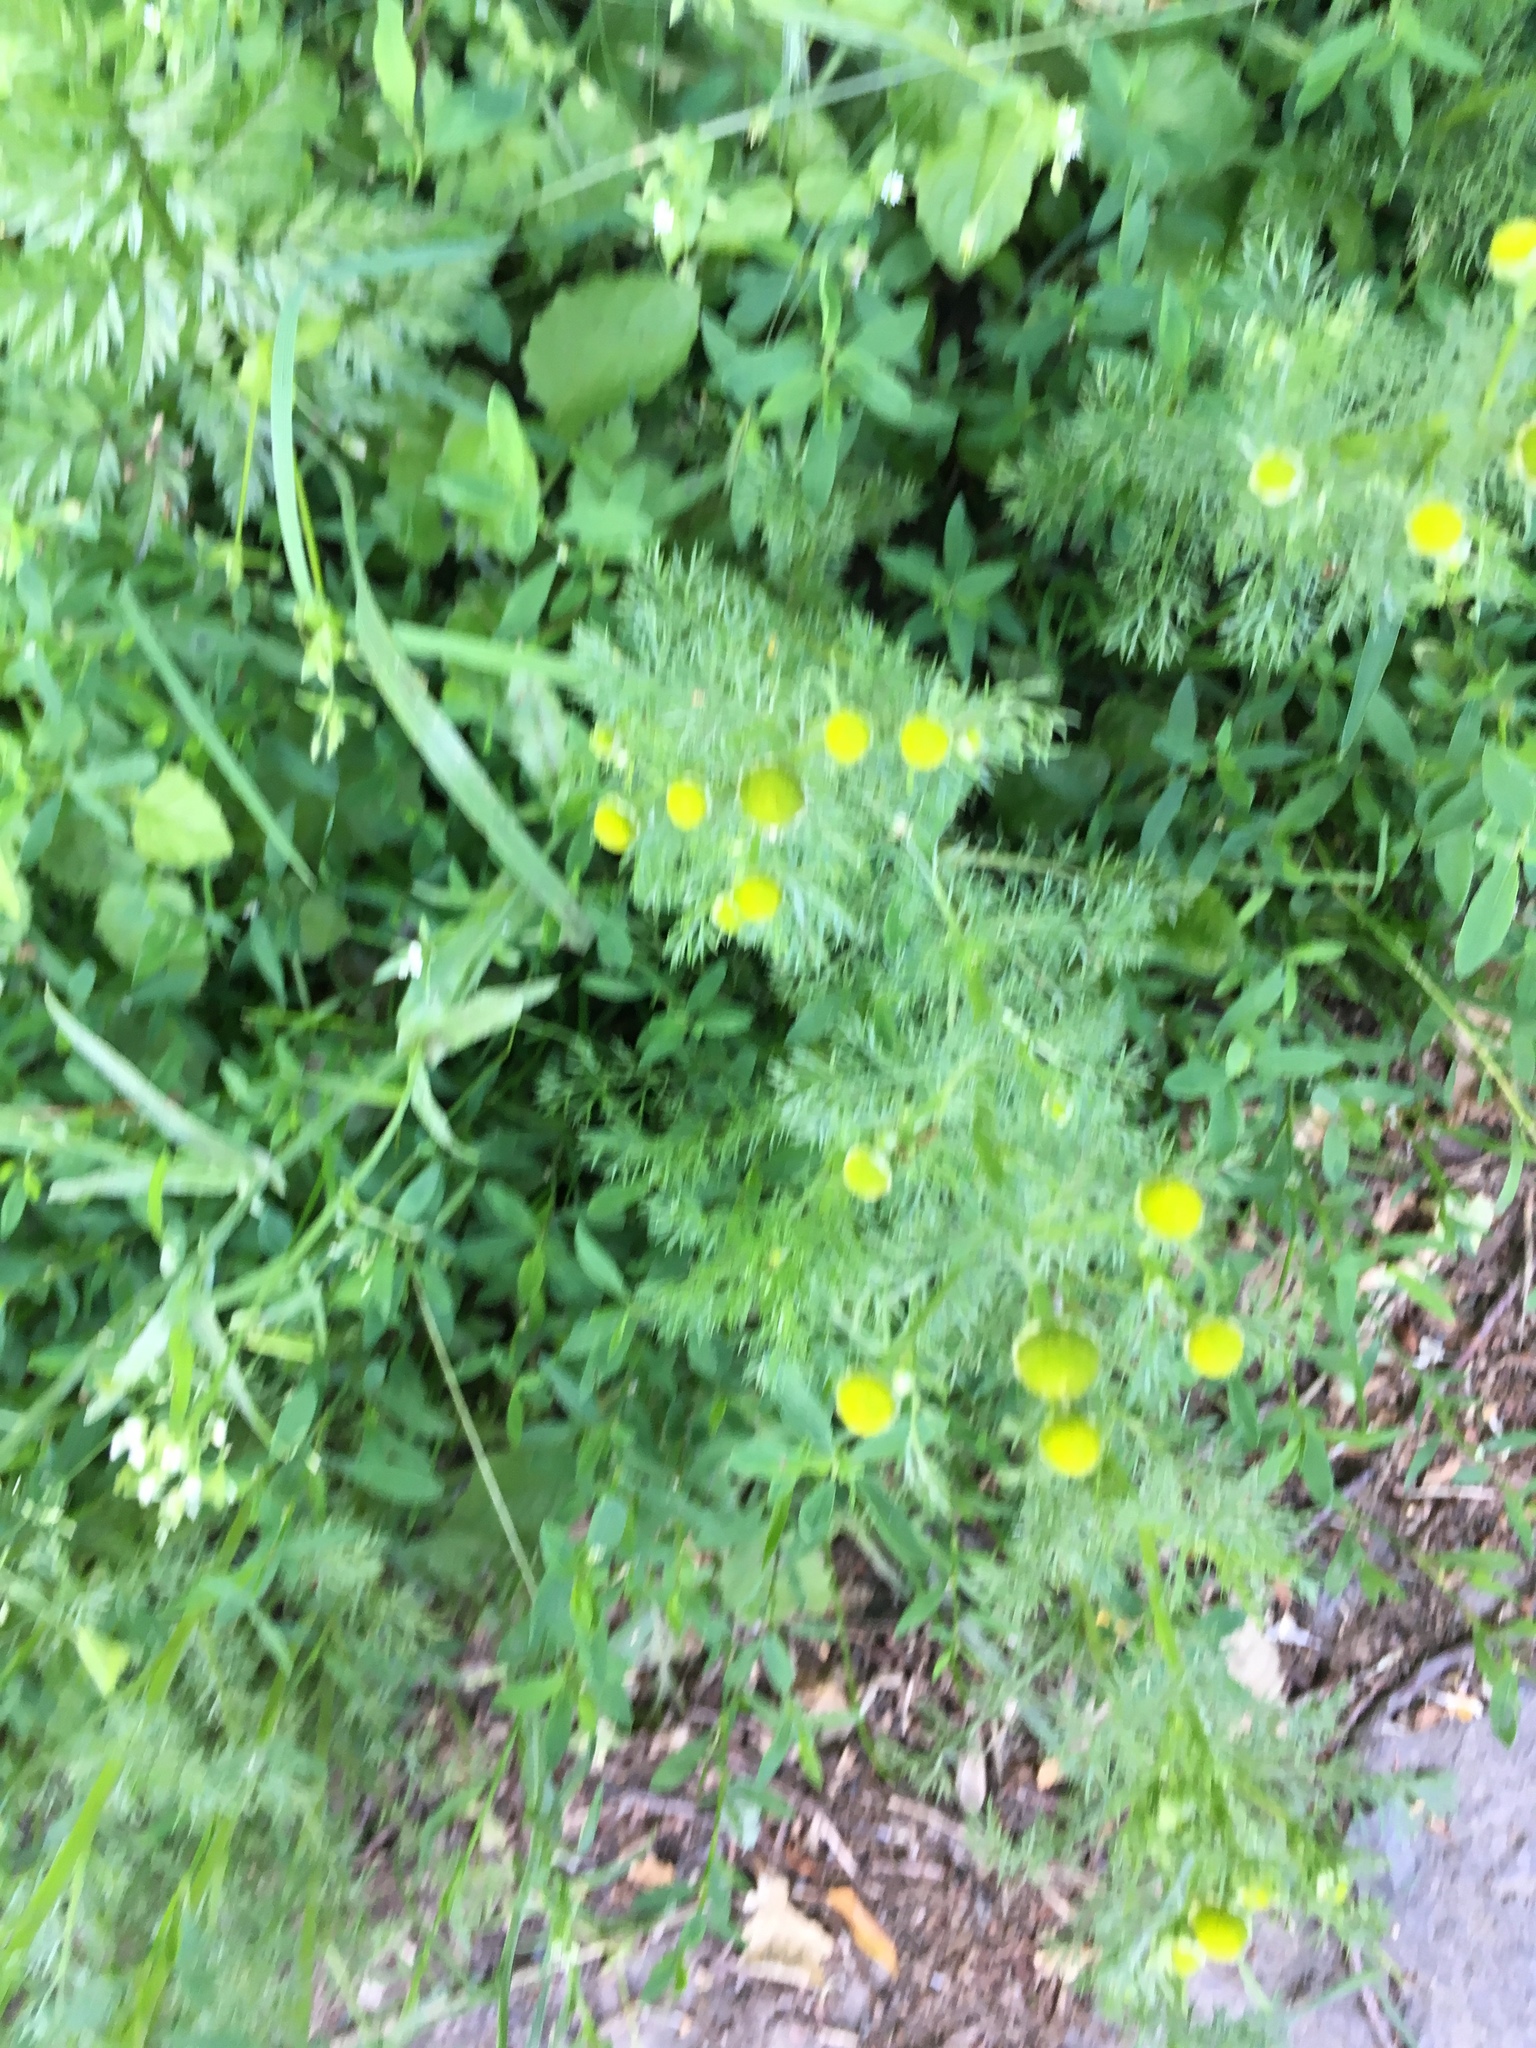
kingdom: Plantae
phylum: Tracheophyta
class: Magnoliopsida
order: Asterales
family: Asteraceae
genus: Matricaria
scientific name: Matricaria discoidea
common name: Disc mayweed
